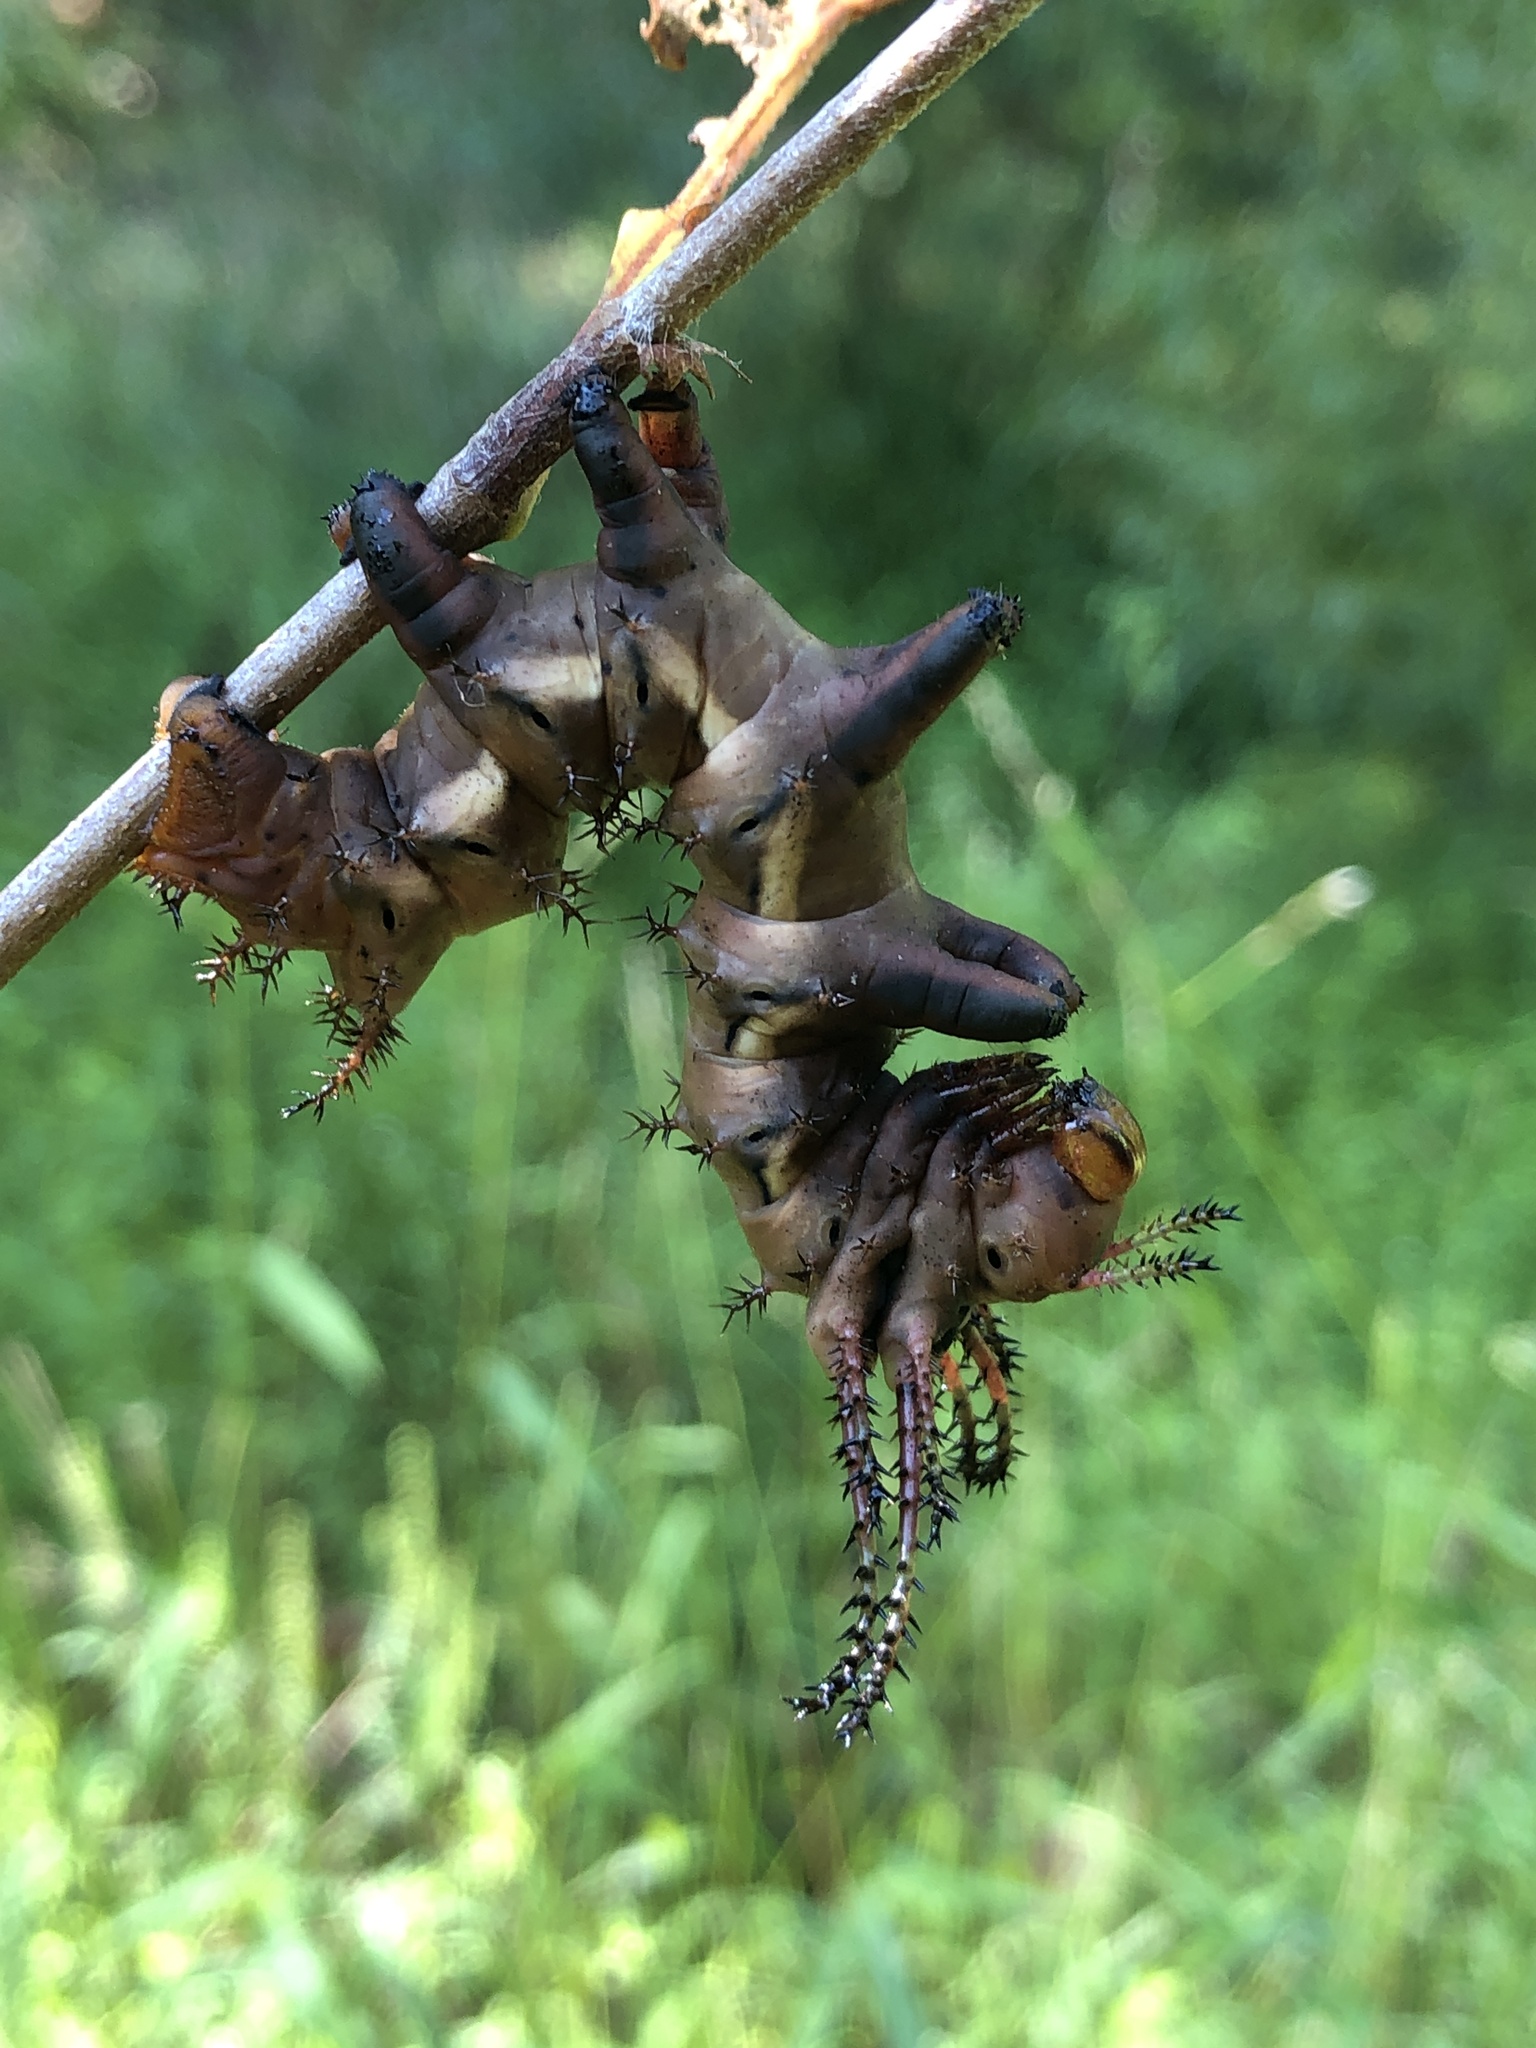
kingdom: Animalia
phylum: Arthropoda
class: Insecta
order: Lepidoptera
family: Saturniidae
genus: Citheronia
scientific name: Citheronia regalis
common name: Hickory horned devil
